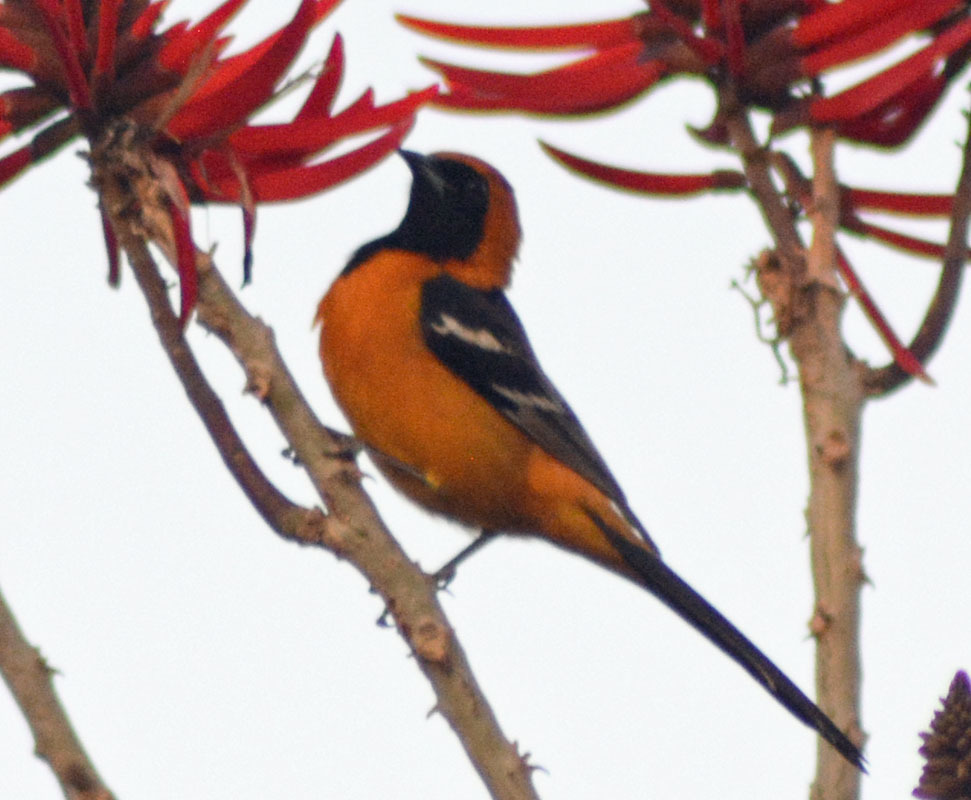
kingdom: Animalia
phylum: Chordata
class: Aves
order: Passeriformes
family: Icteridae
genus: Icterus
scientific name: Icterus cucullatus
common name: Hooded oriole
